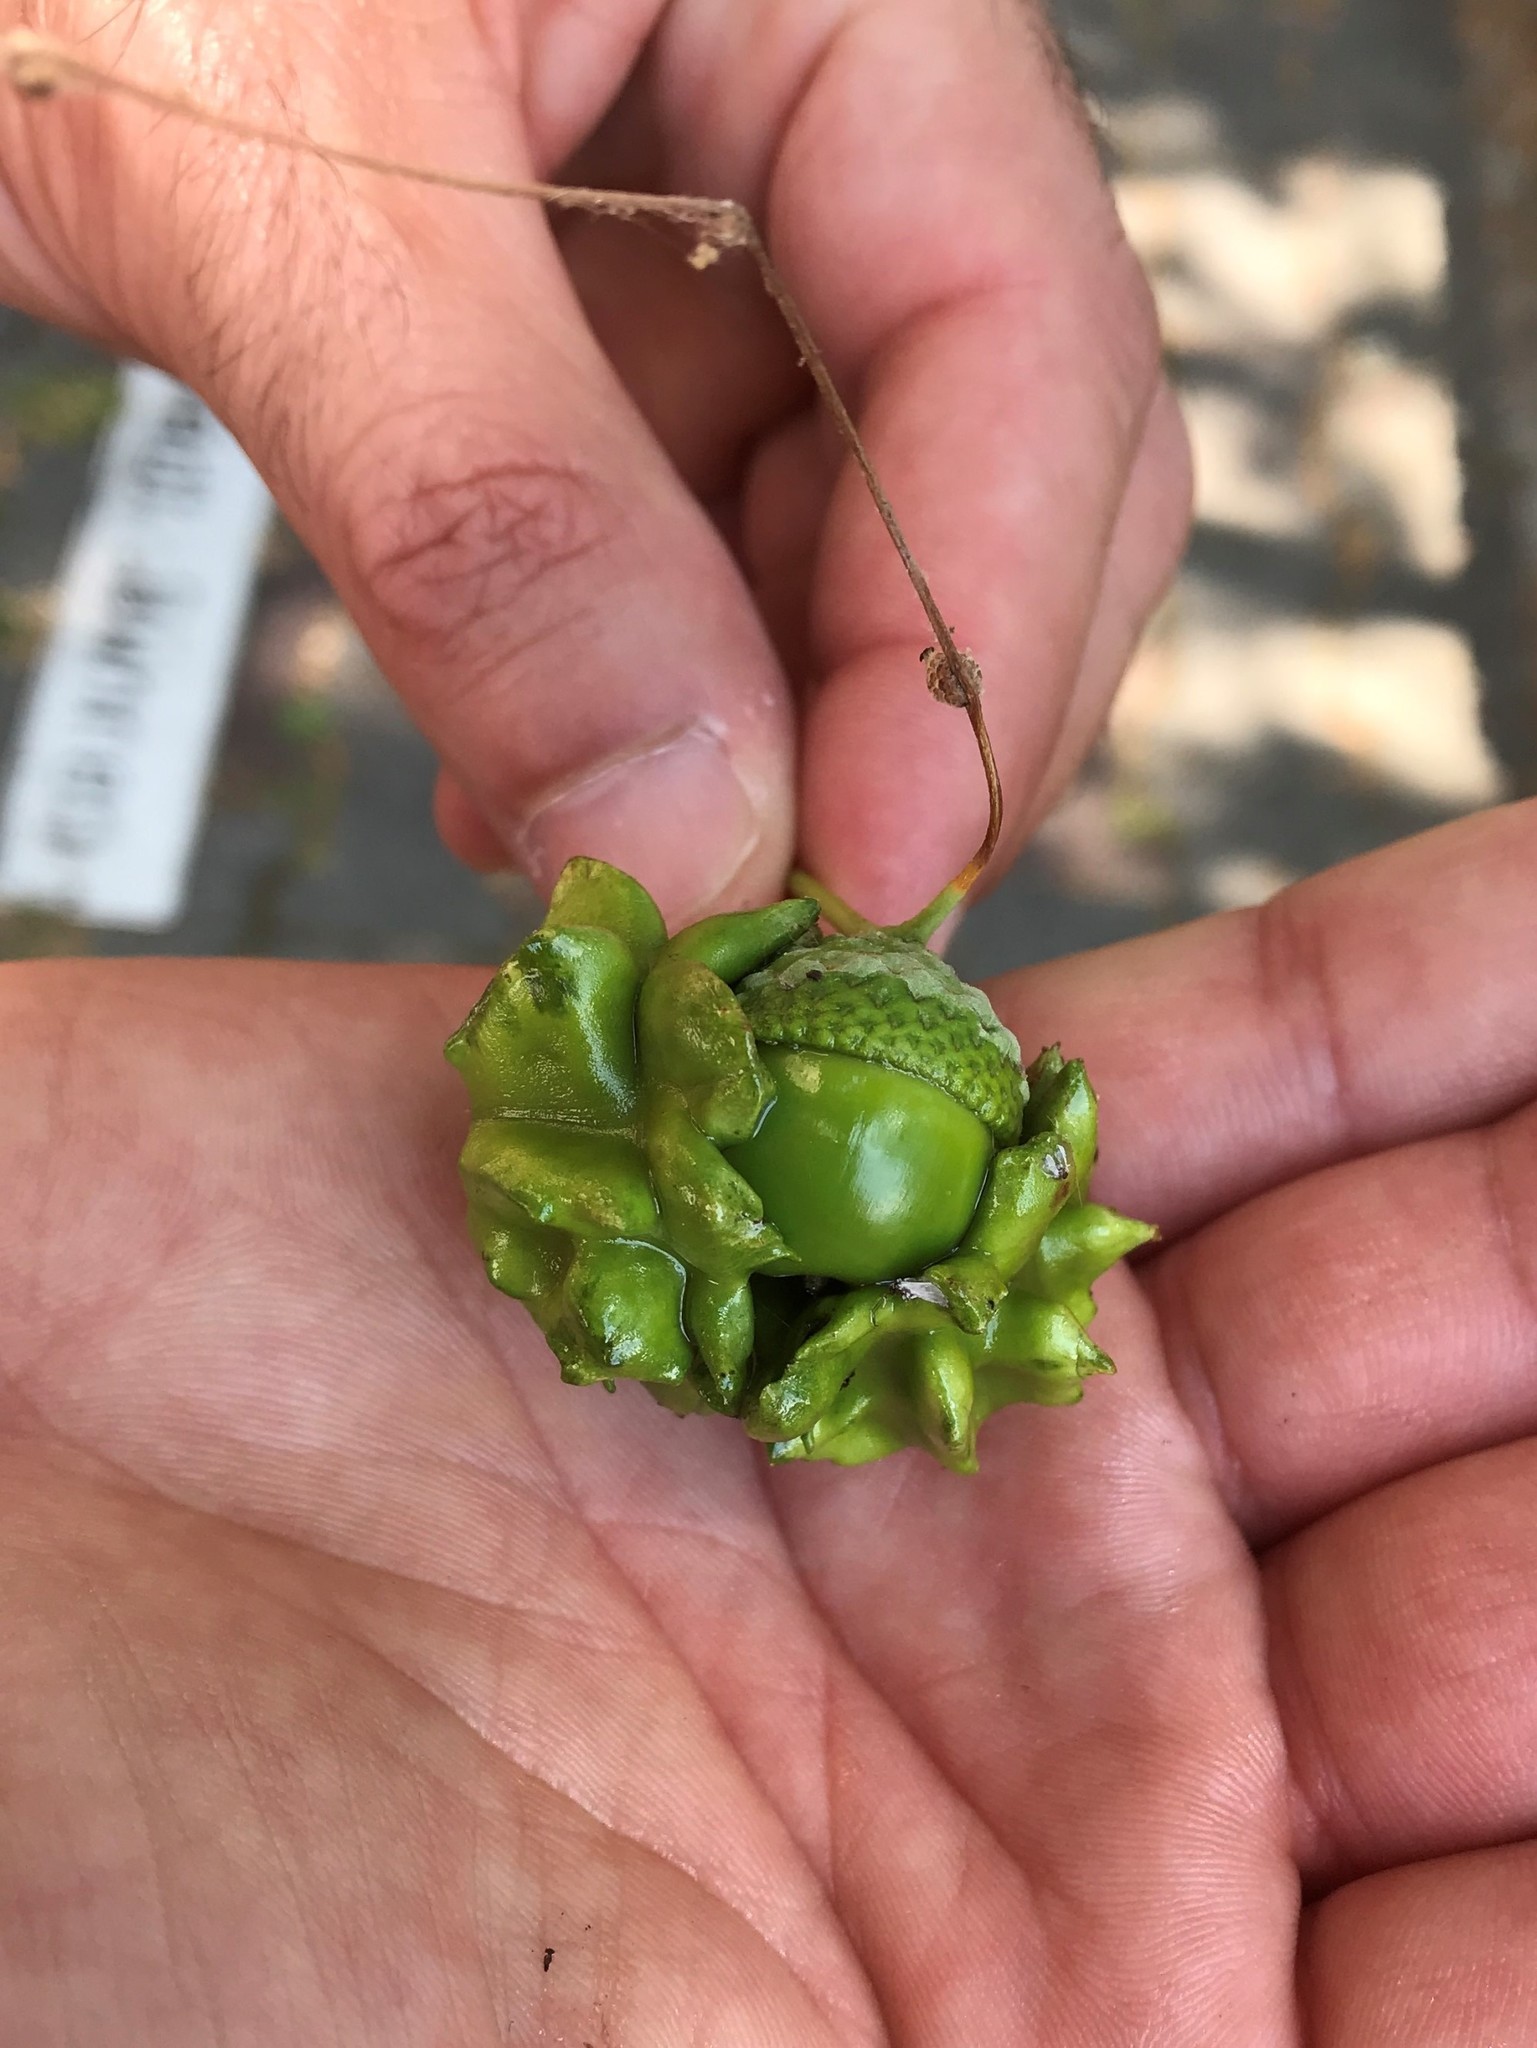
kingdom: Animalia
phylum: Arthropoda
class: Insecta
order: Hymenoptera
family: Cynipidae
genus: Andricus
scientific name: Andricus quercuscalicis
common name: Knopper gall
